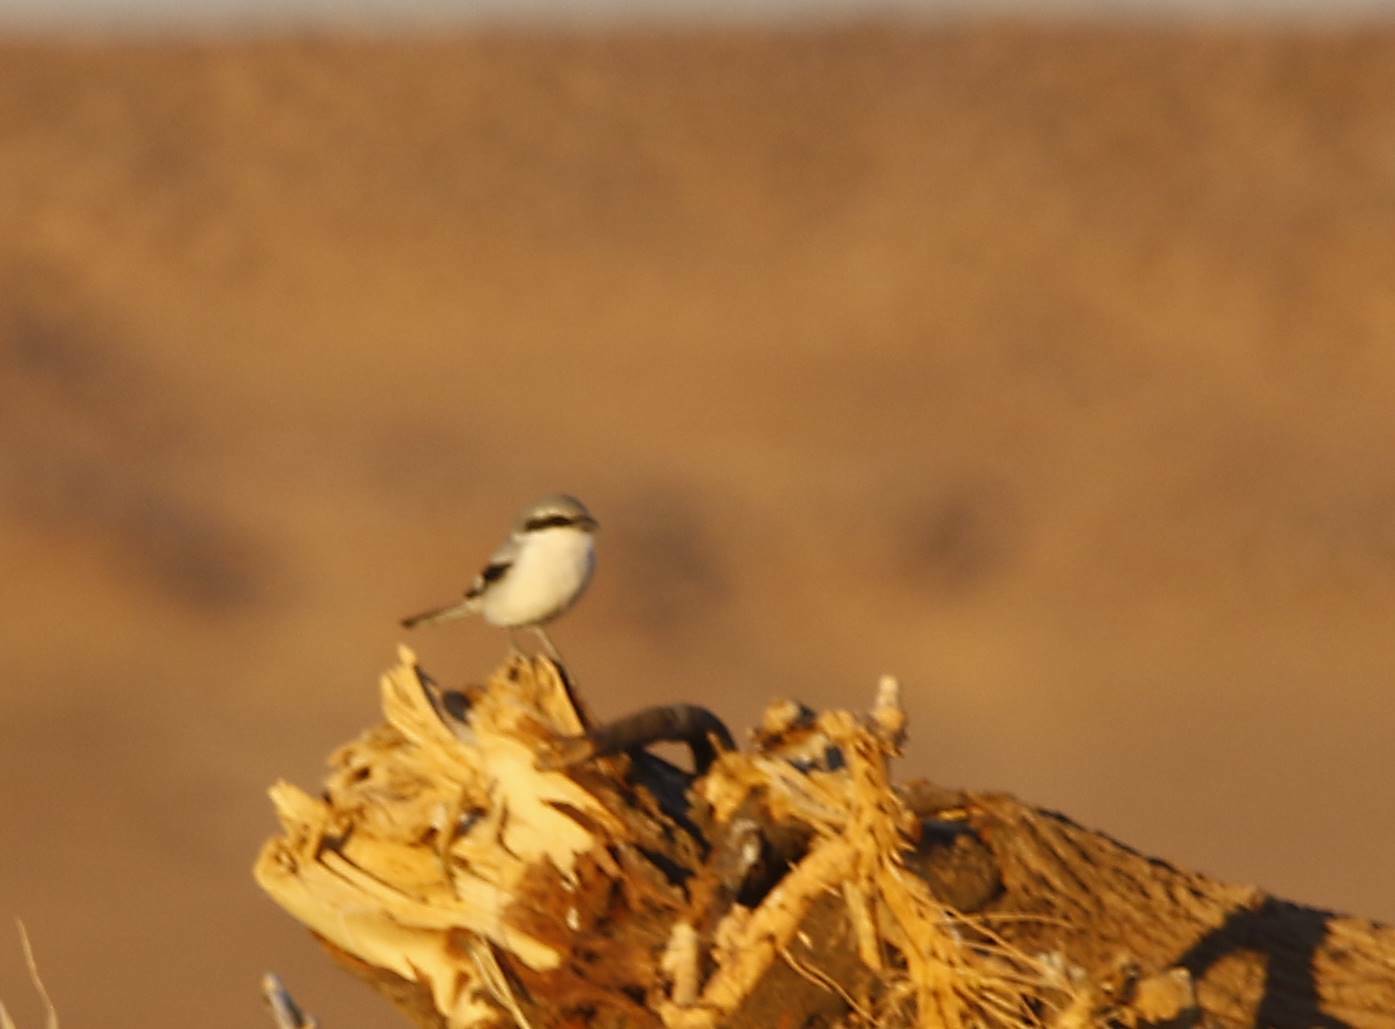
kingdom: Animalia
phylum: Chordata
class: Aves
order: Passeriformes
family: Laniidae
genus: Lanius
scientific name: Lanius excubitor
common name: Great grey shrike
